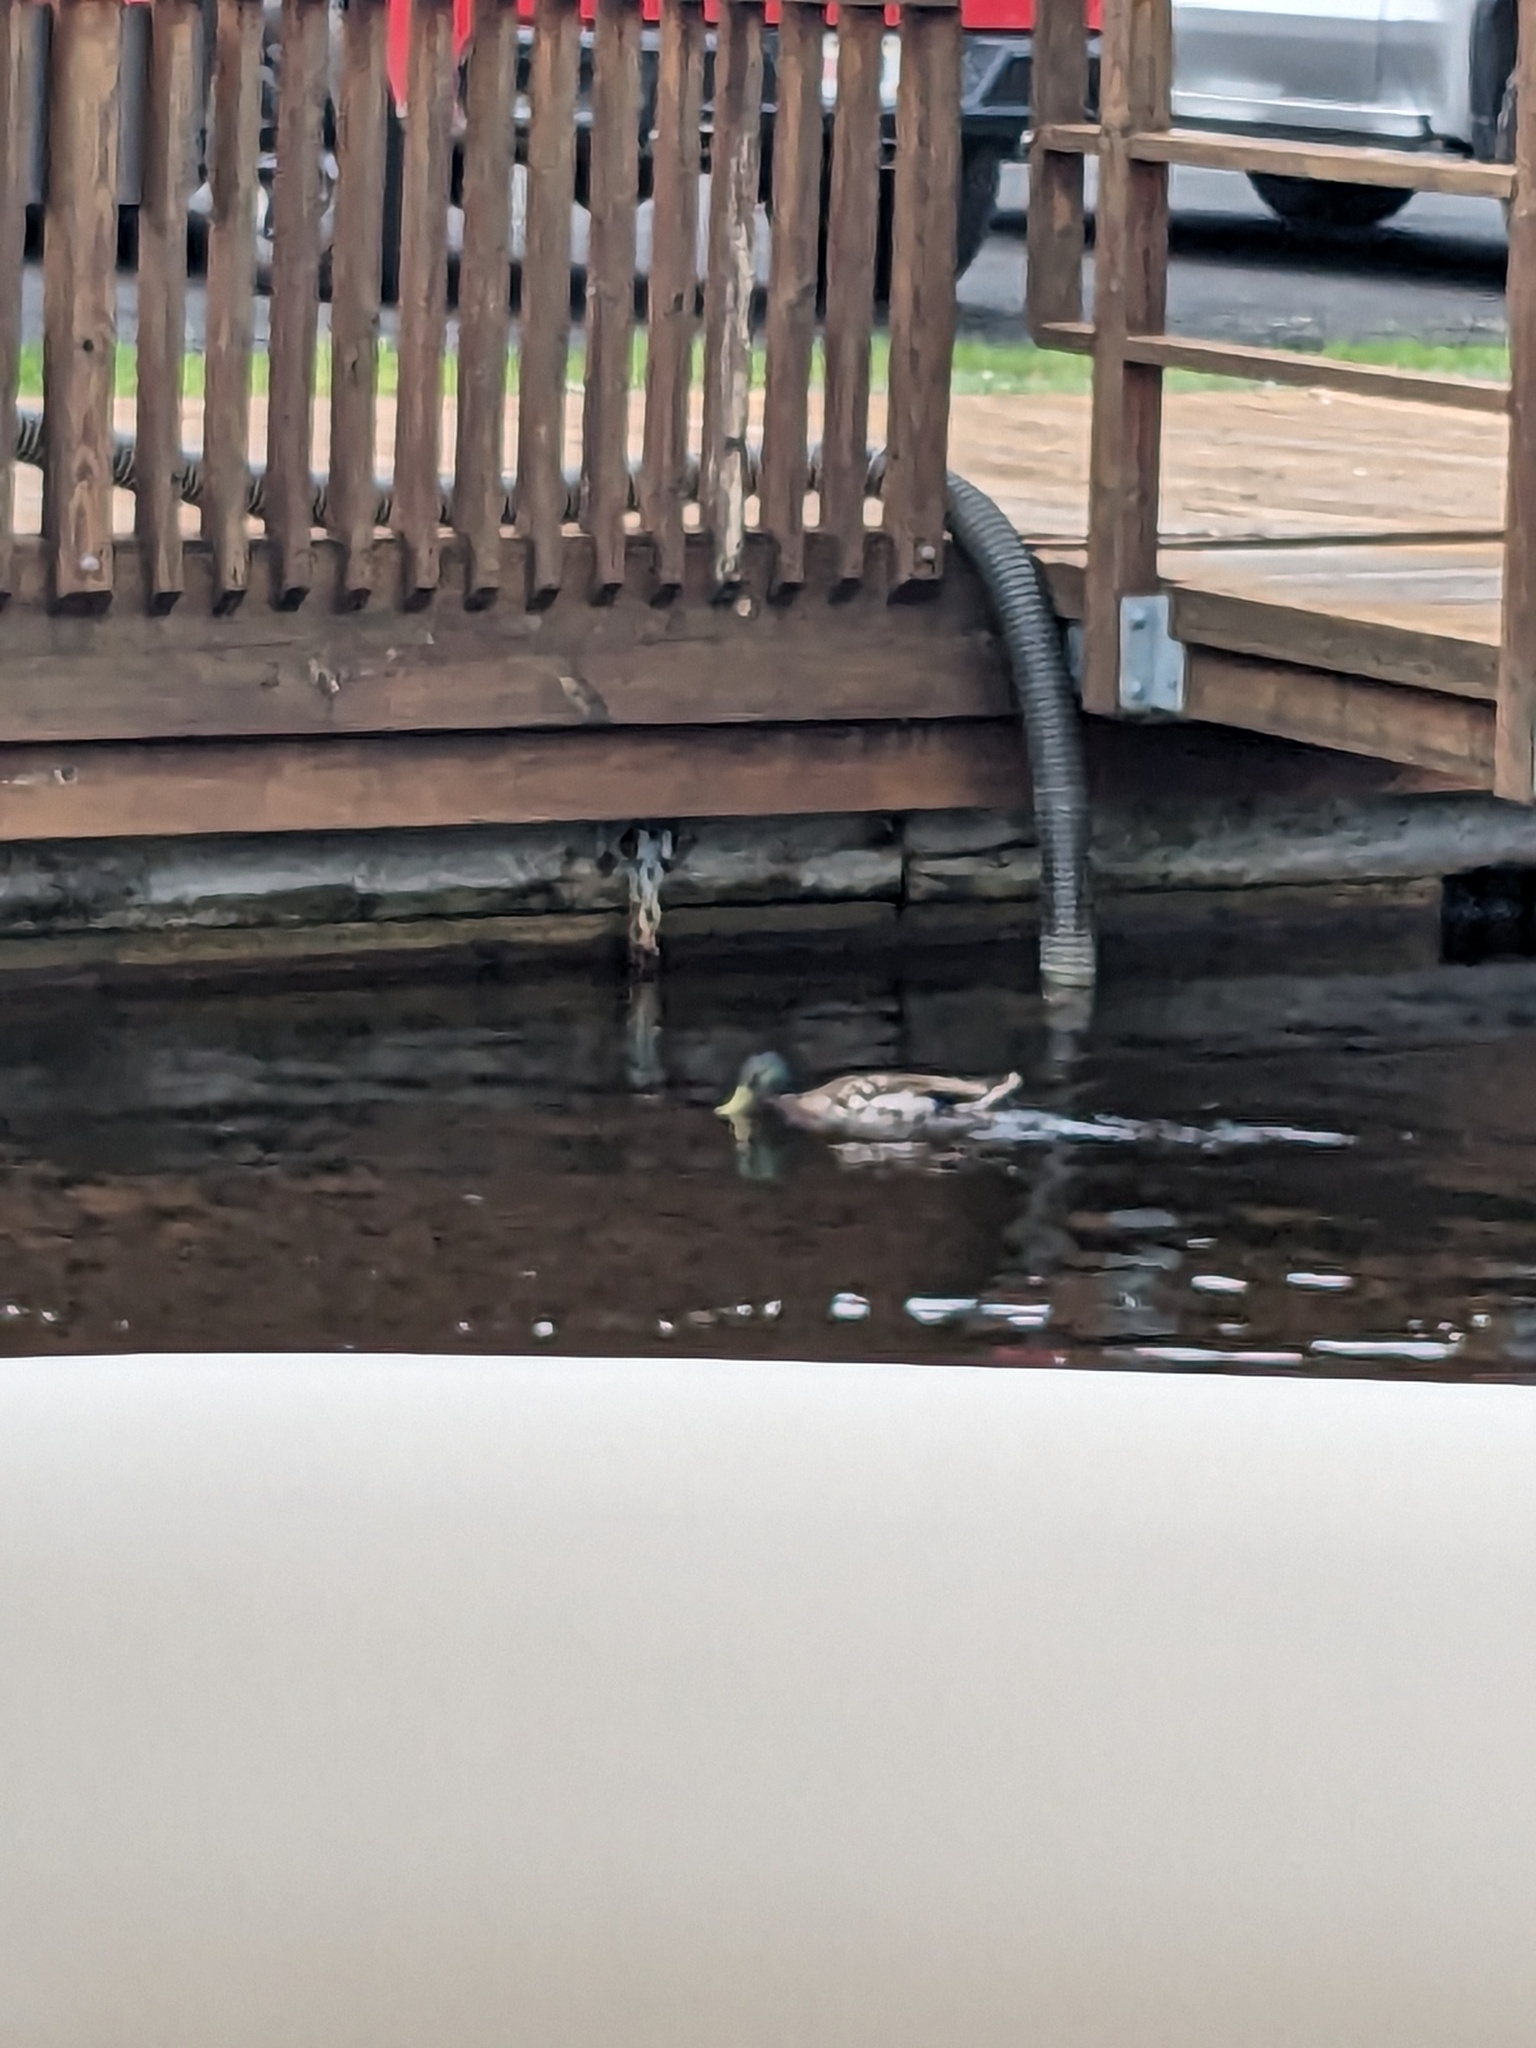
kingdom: Animalia
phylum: Chordata
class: Aves
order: Anseriformes
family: Anatidae
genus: Anas
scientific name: Anas platyrhynchos
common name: Mallard
